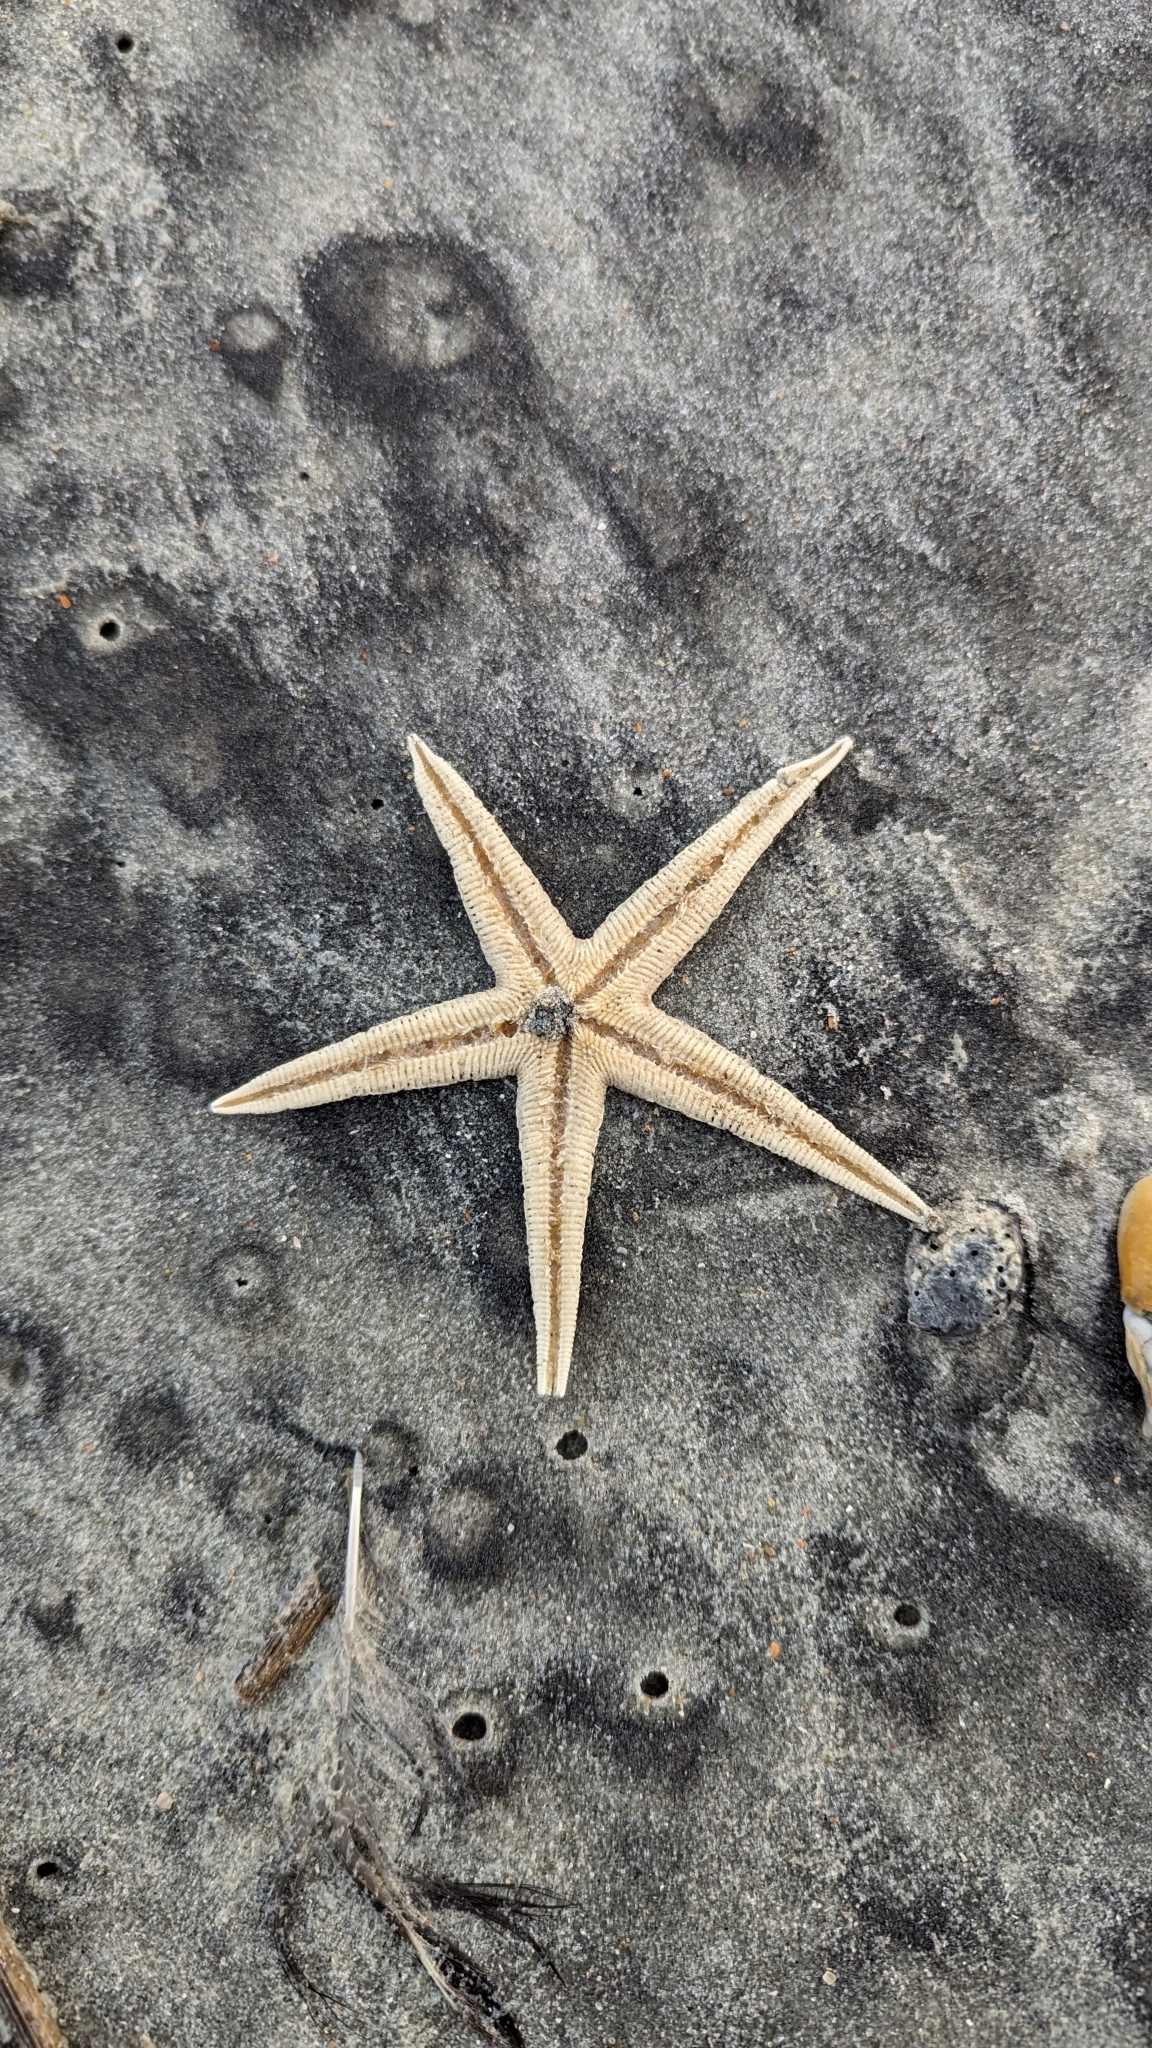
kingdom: Animalia
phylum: Echinodermata
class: Asteroidea
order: Paxillosida
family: Luidiidae
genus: Luidia
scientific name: Luidia clathrata
